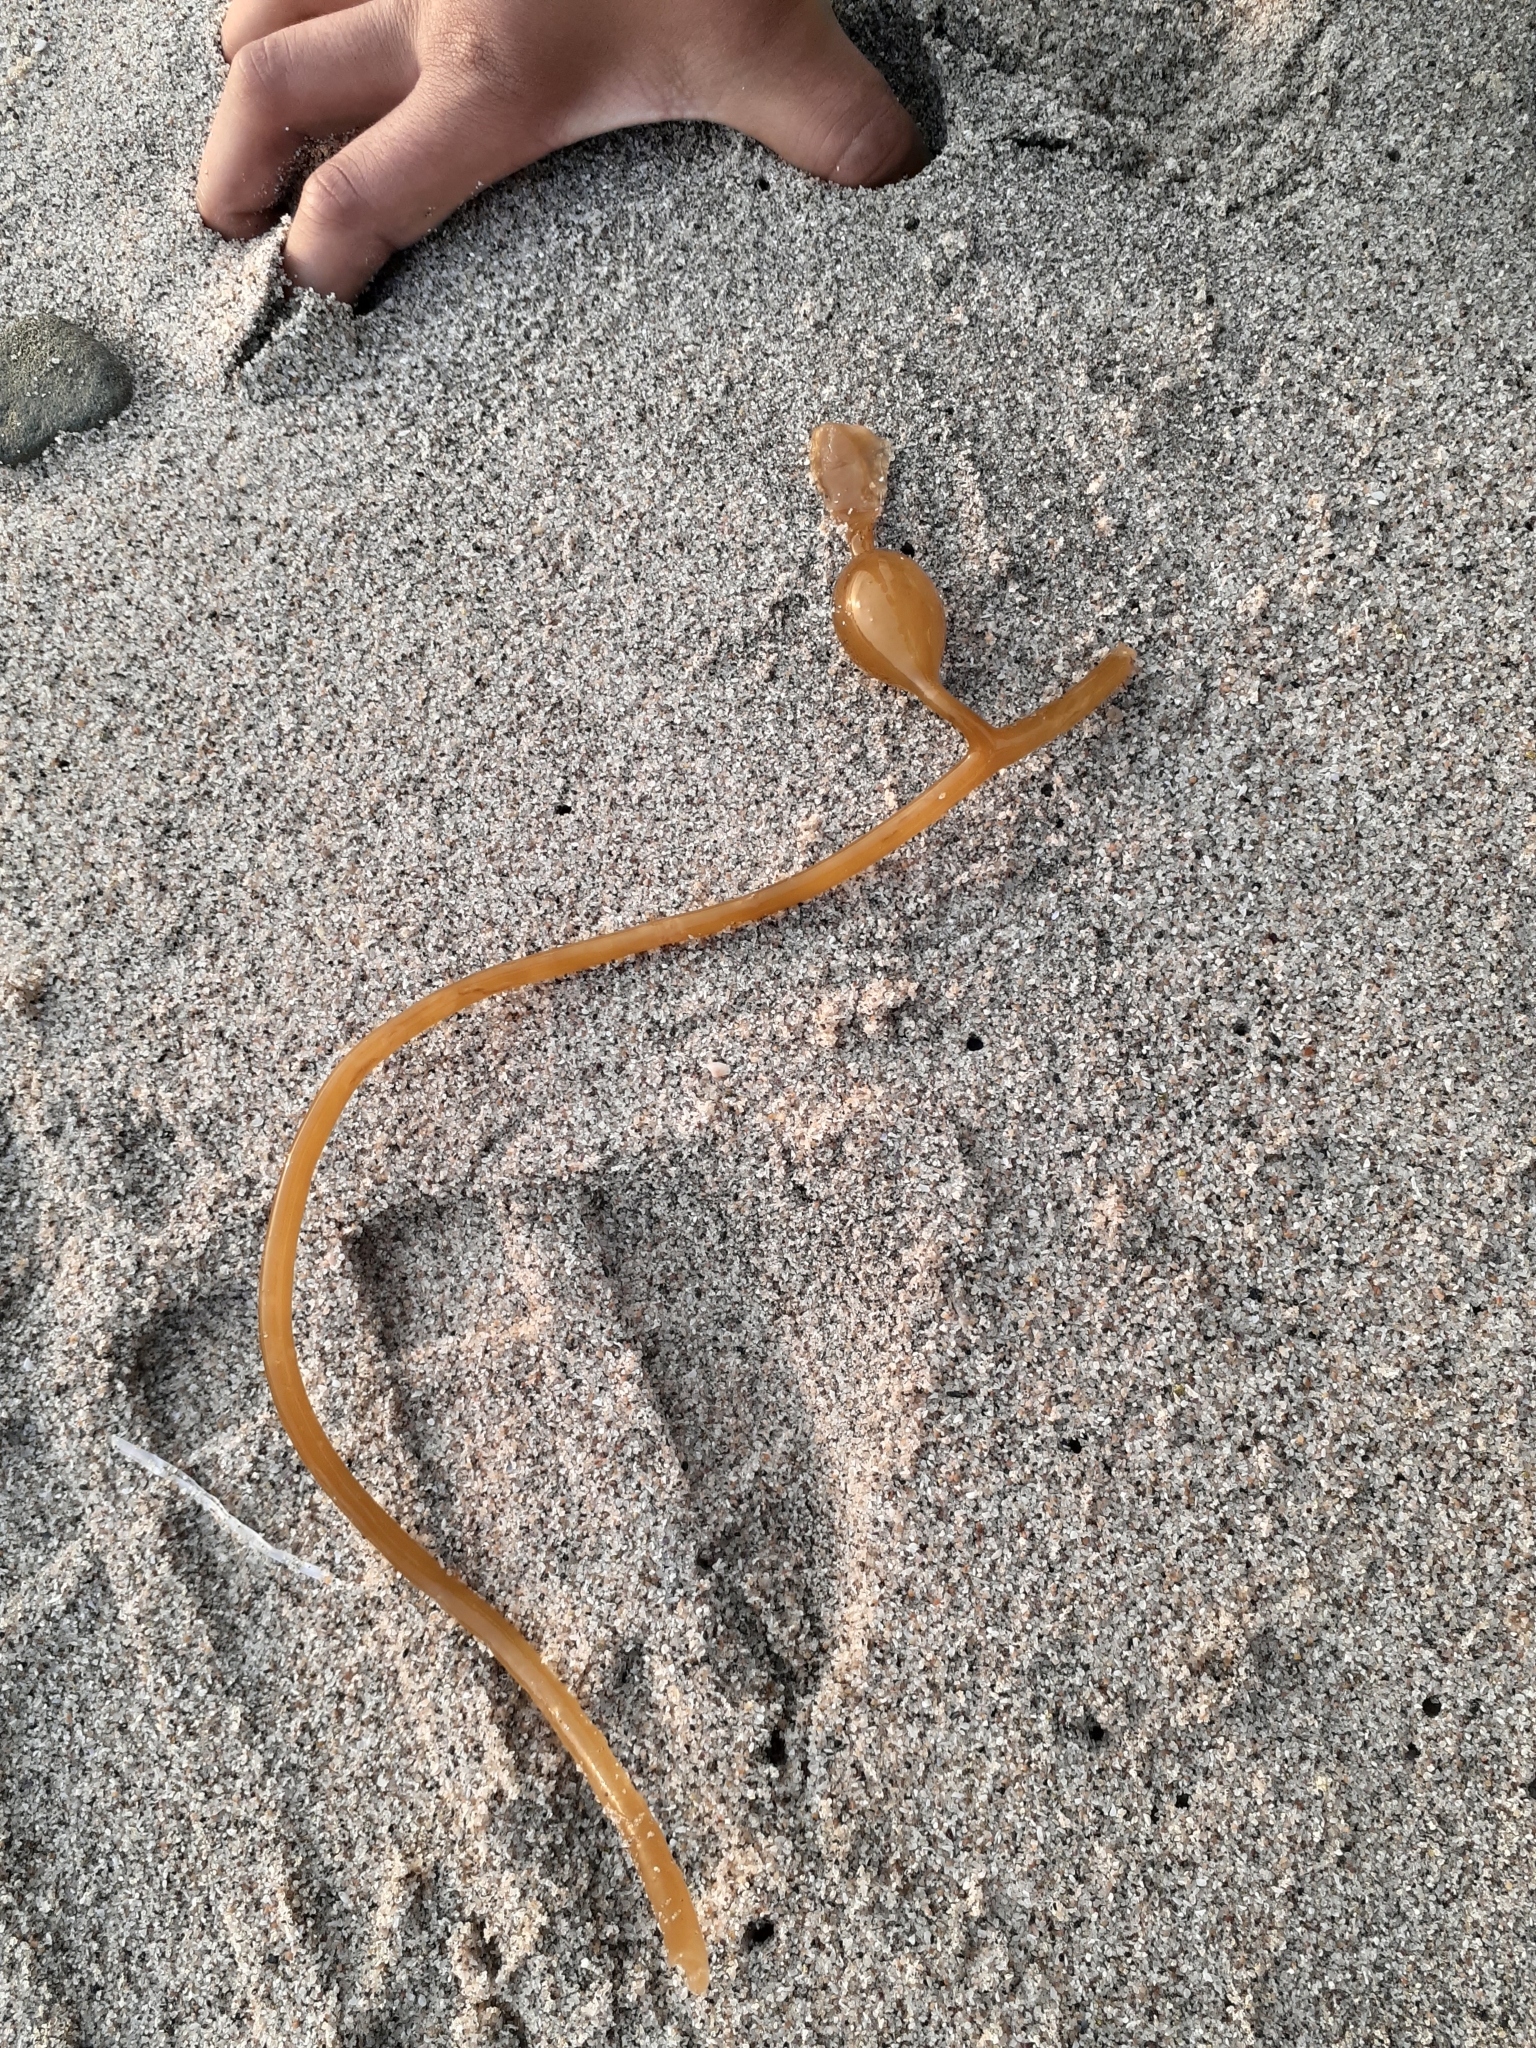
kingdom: Chromista
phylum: Ochrophyta
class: Phaeophyceae
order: Laminariales
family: Laminariaceae
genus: Macrocystis
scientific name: Macrocystis pyrifera
